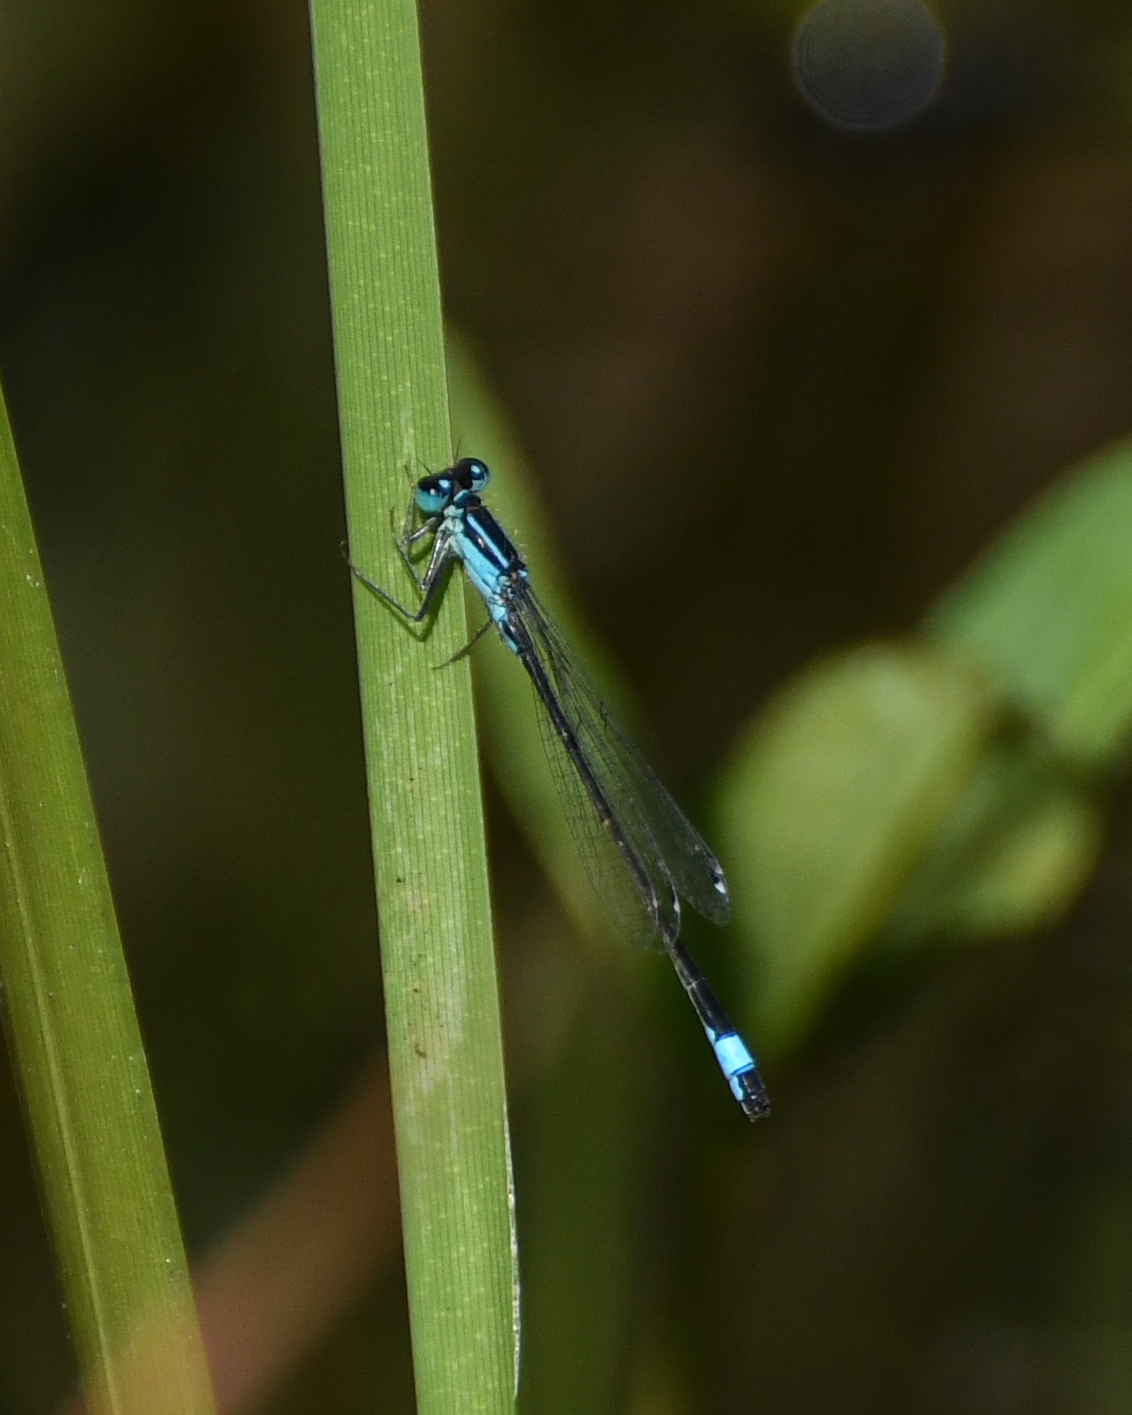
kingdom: Animalia
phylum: Arthropoda
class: Insecta
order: Odonata
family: Coenagrionidae
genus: Ischnura
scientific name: Ischnura elegans
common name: Blue-tailed damselfly
